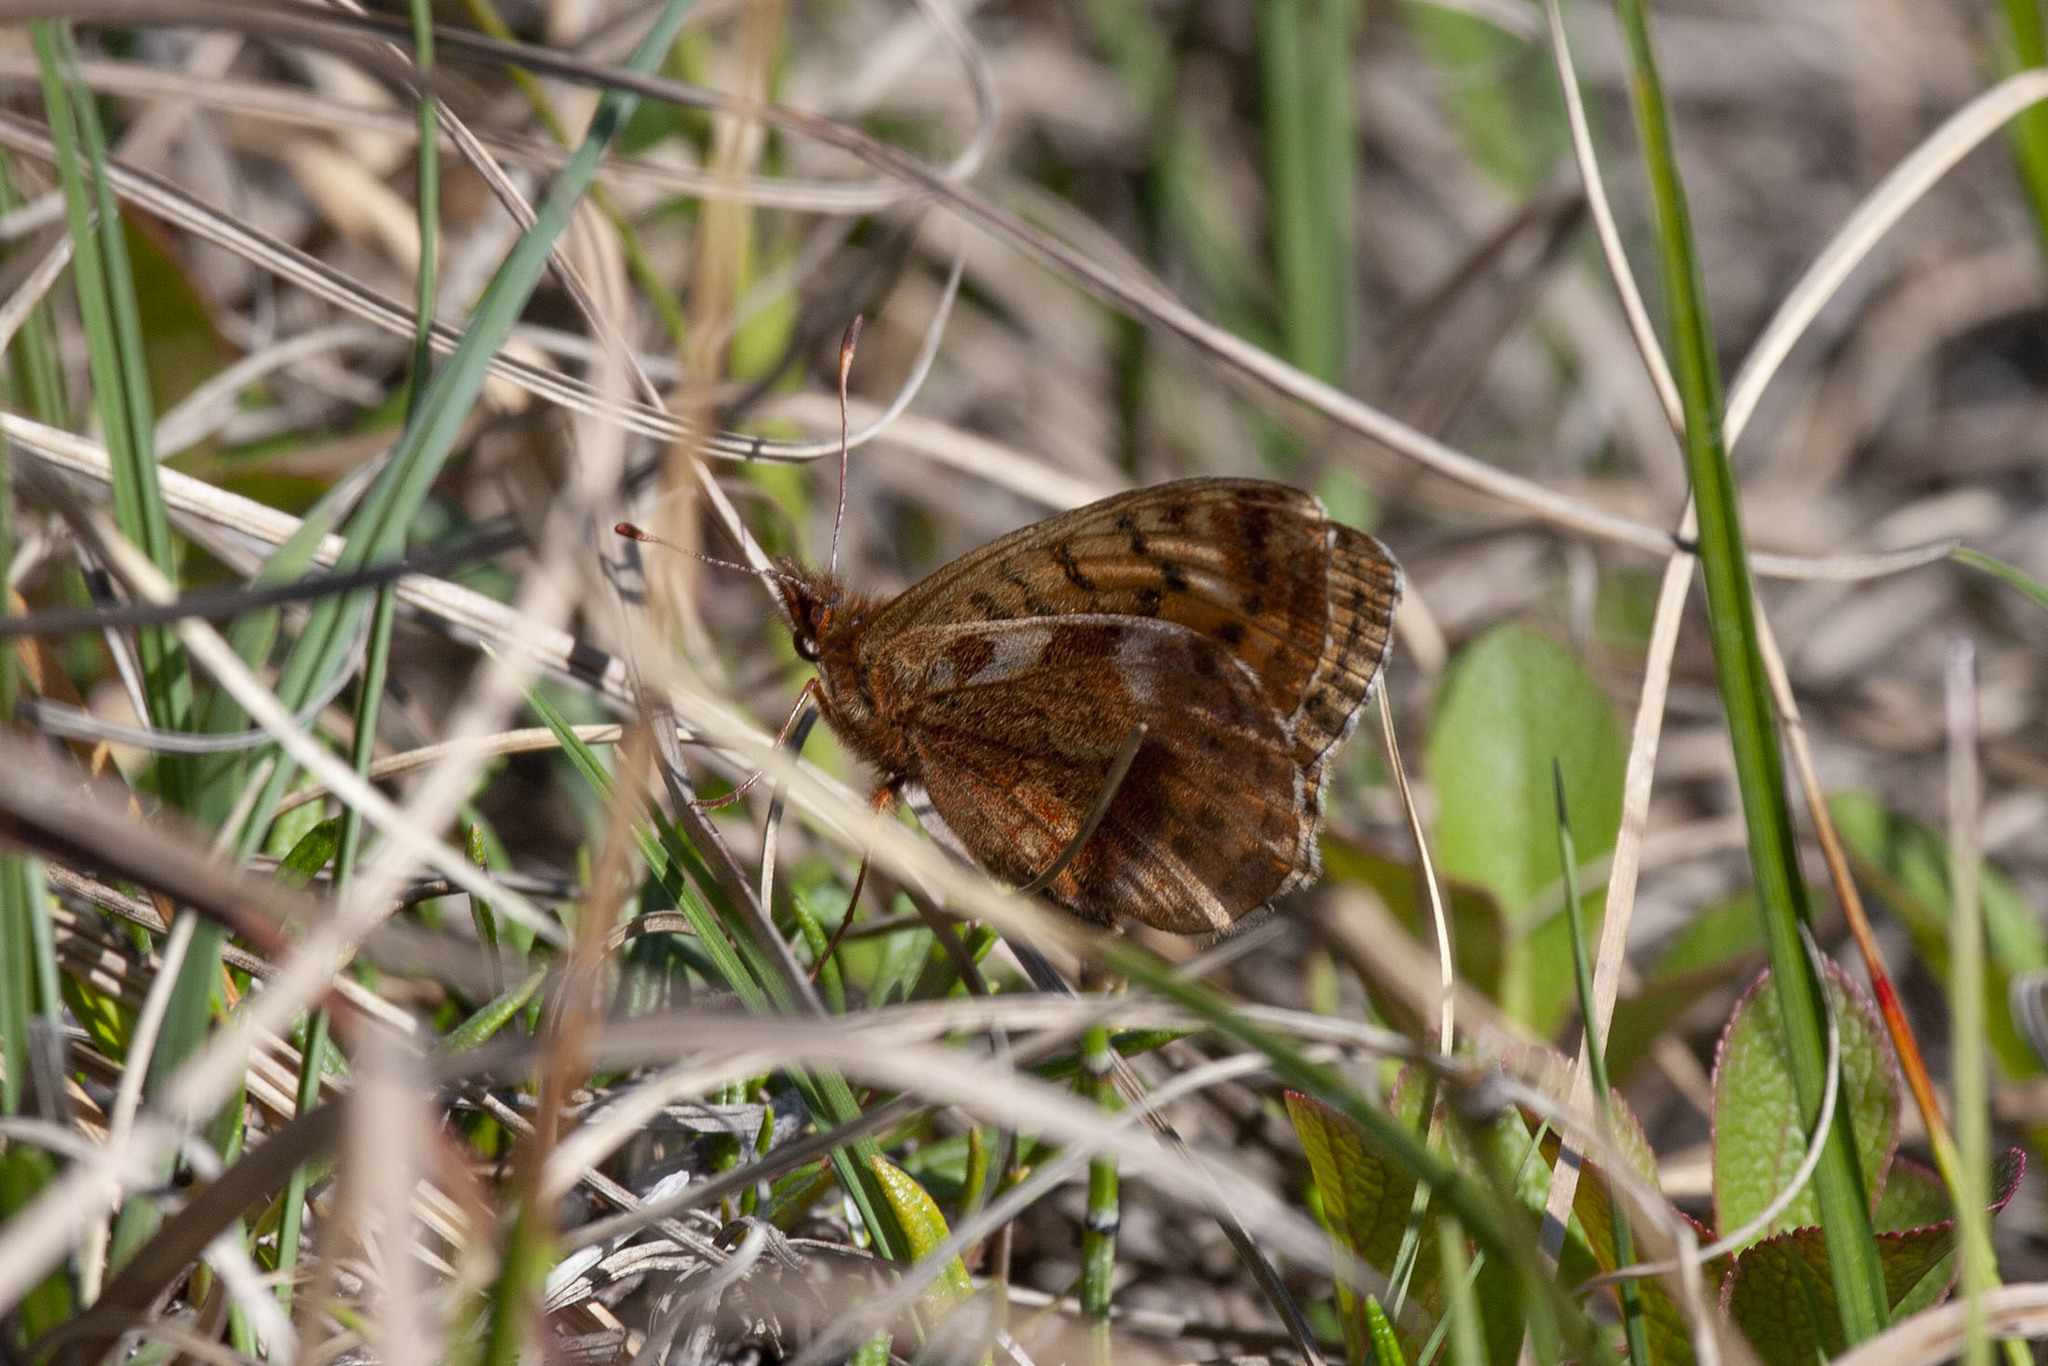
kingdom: Animalia
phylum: Arthropoda
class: Insecta
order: Lepidoptera
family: Nymphalidae
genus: Clossiana
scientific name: Clossiana frigga
